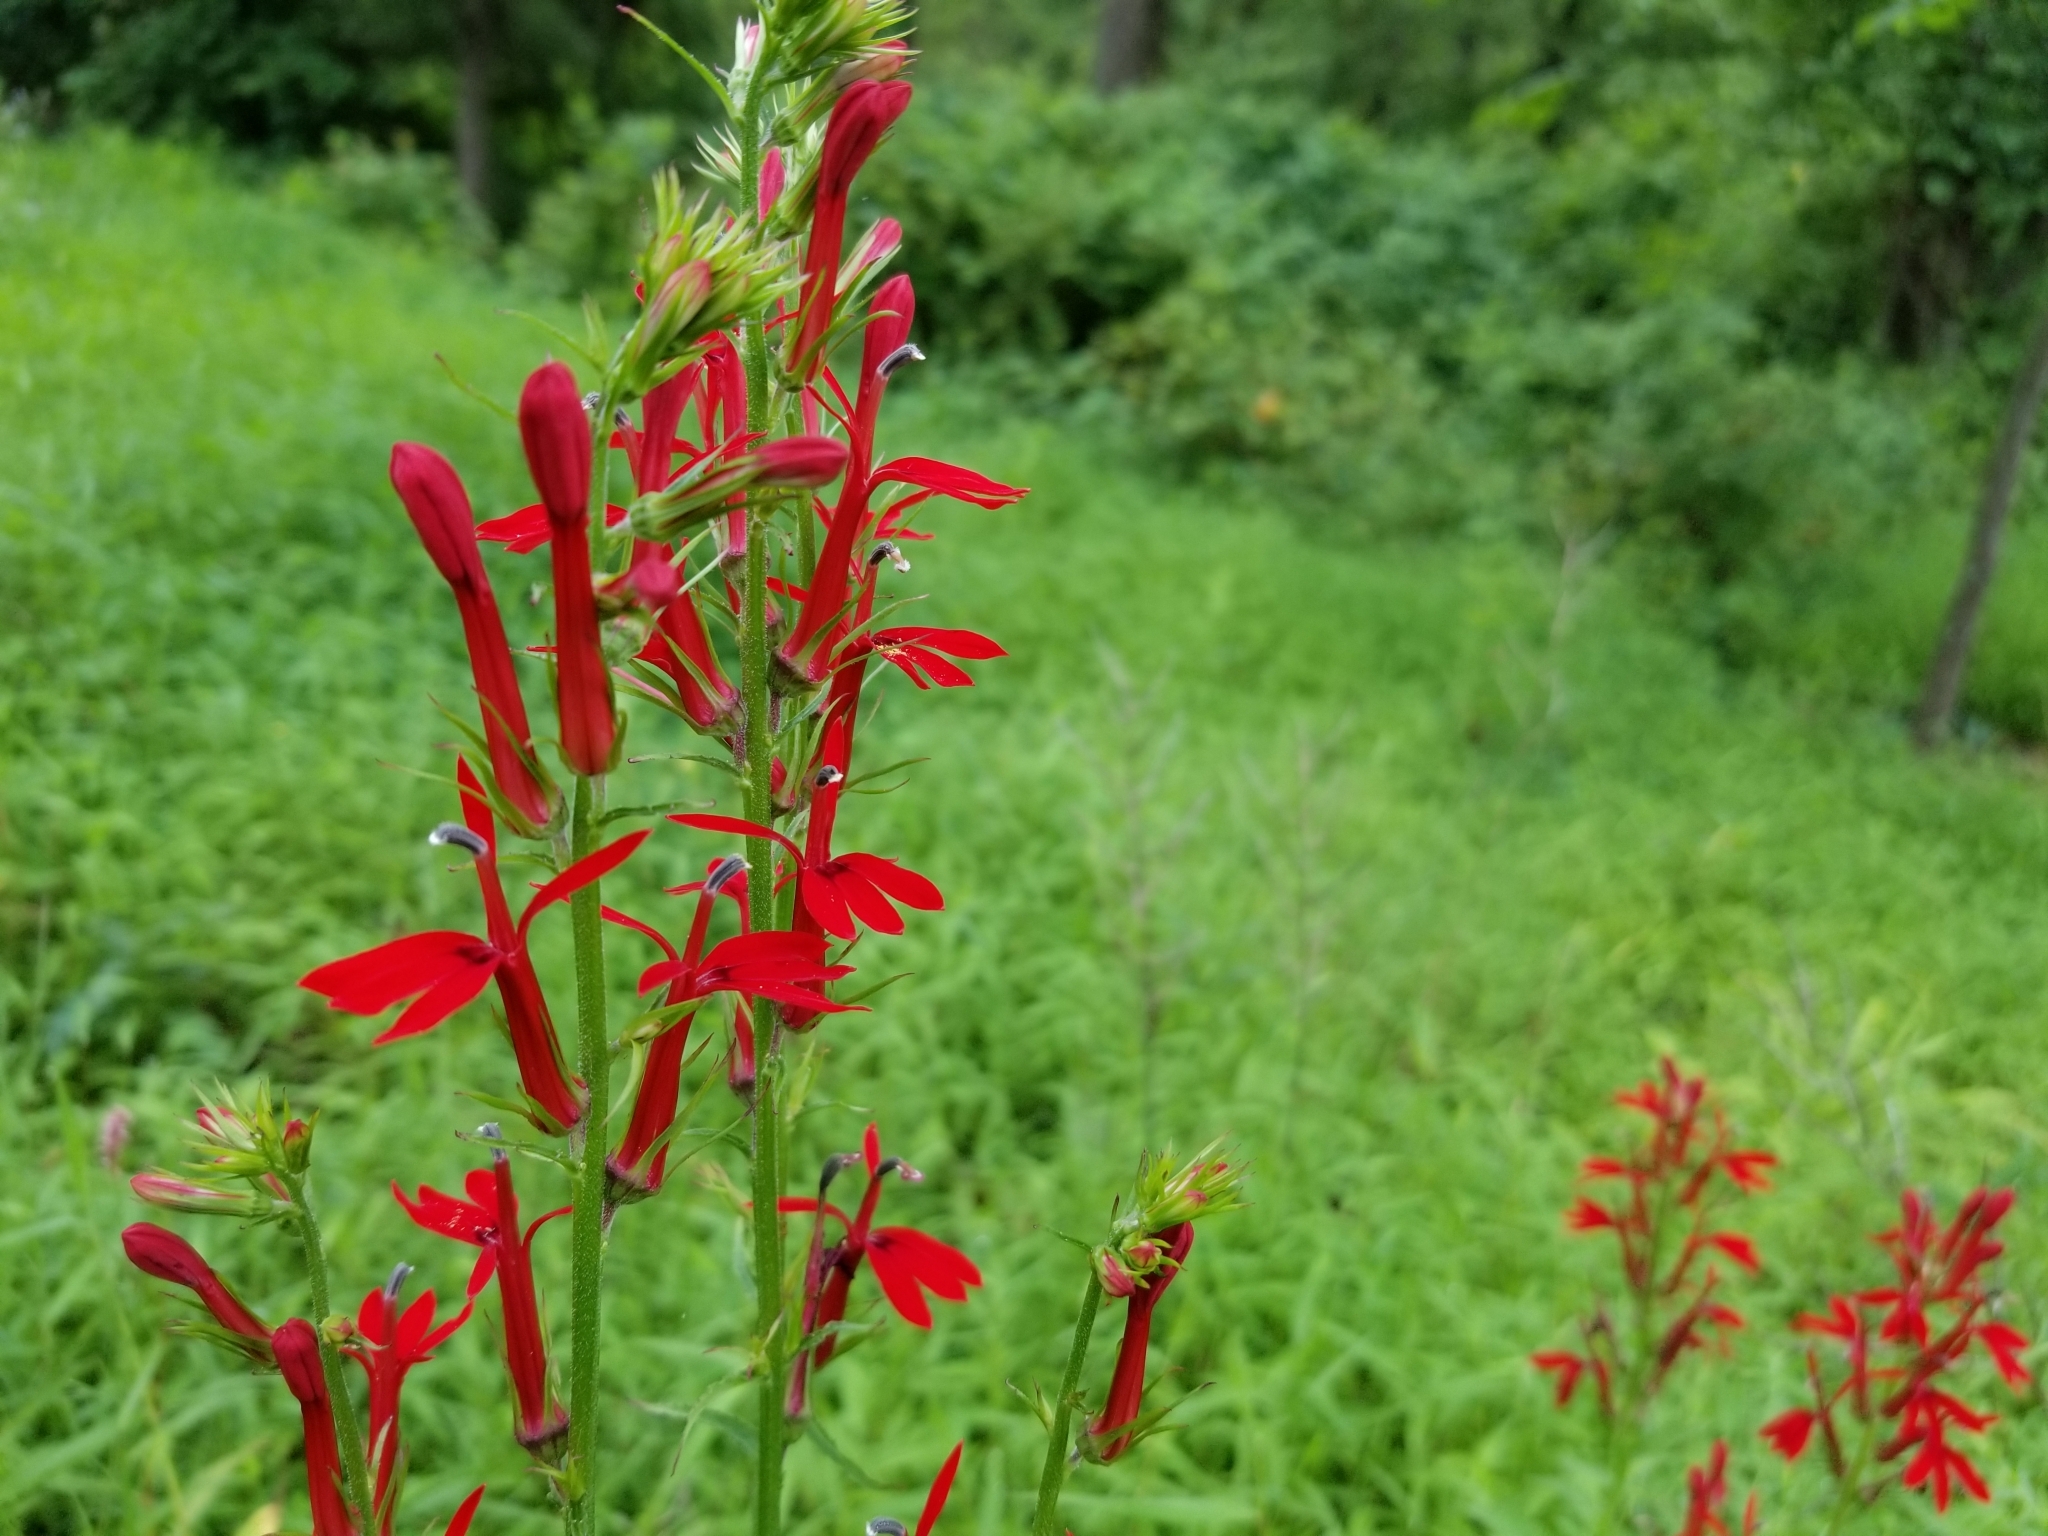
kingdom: Plantae
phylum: Tracheophyta
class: Magnoliopsida
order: Asterales
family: Campanulaceae
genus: Lobelia
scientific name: Lobelia cardinalis
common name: Cardinal flower
